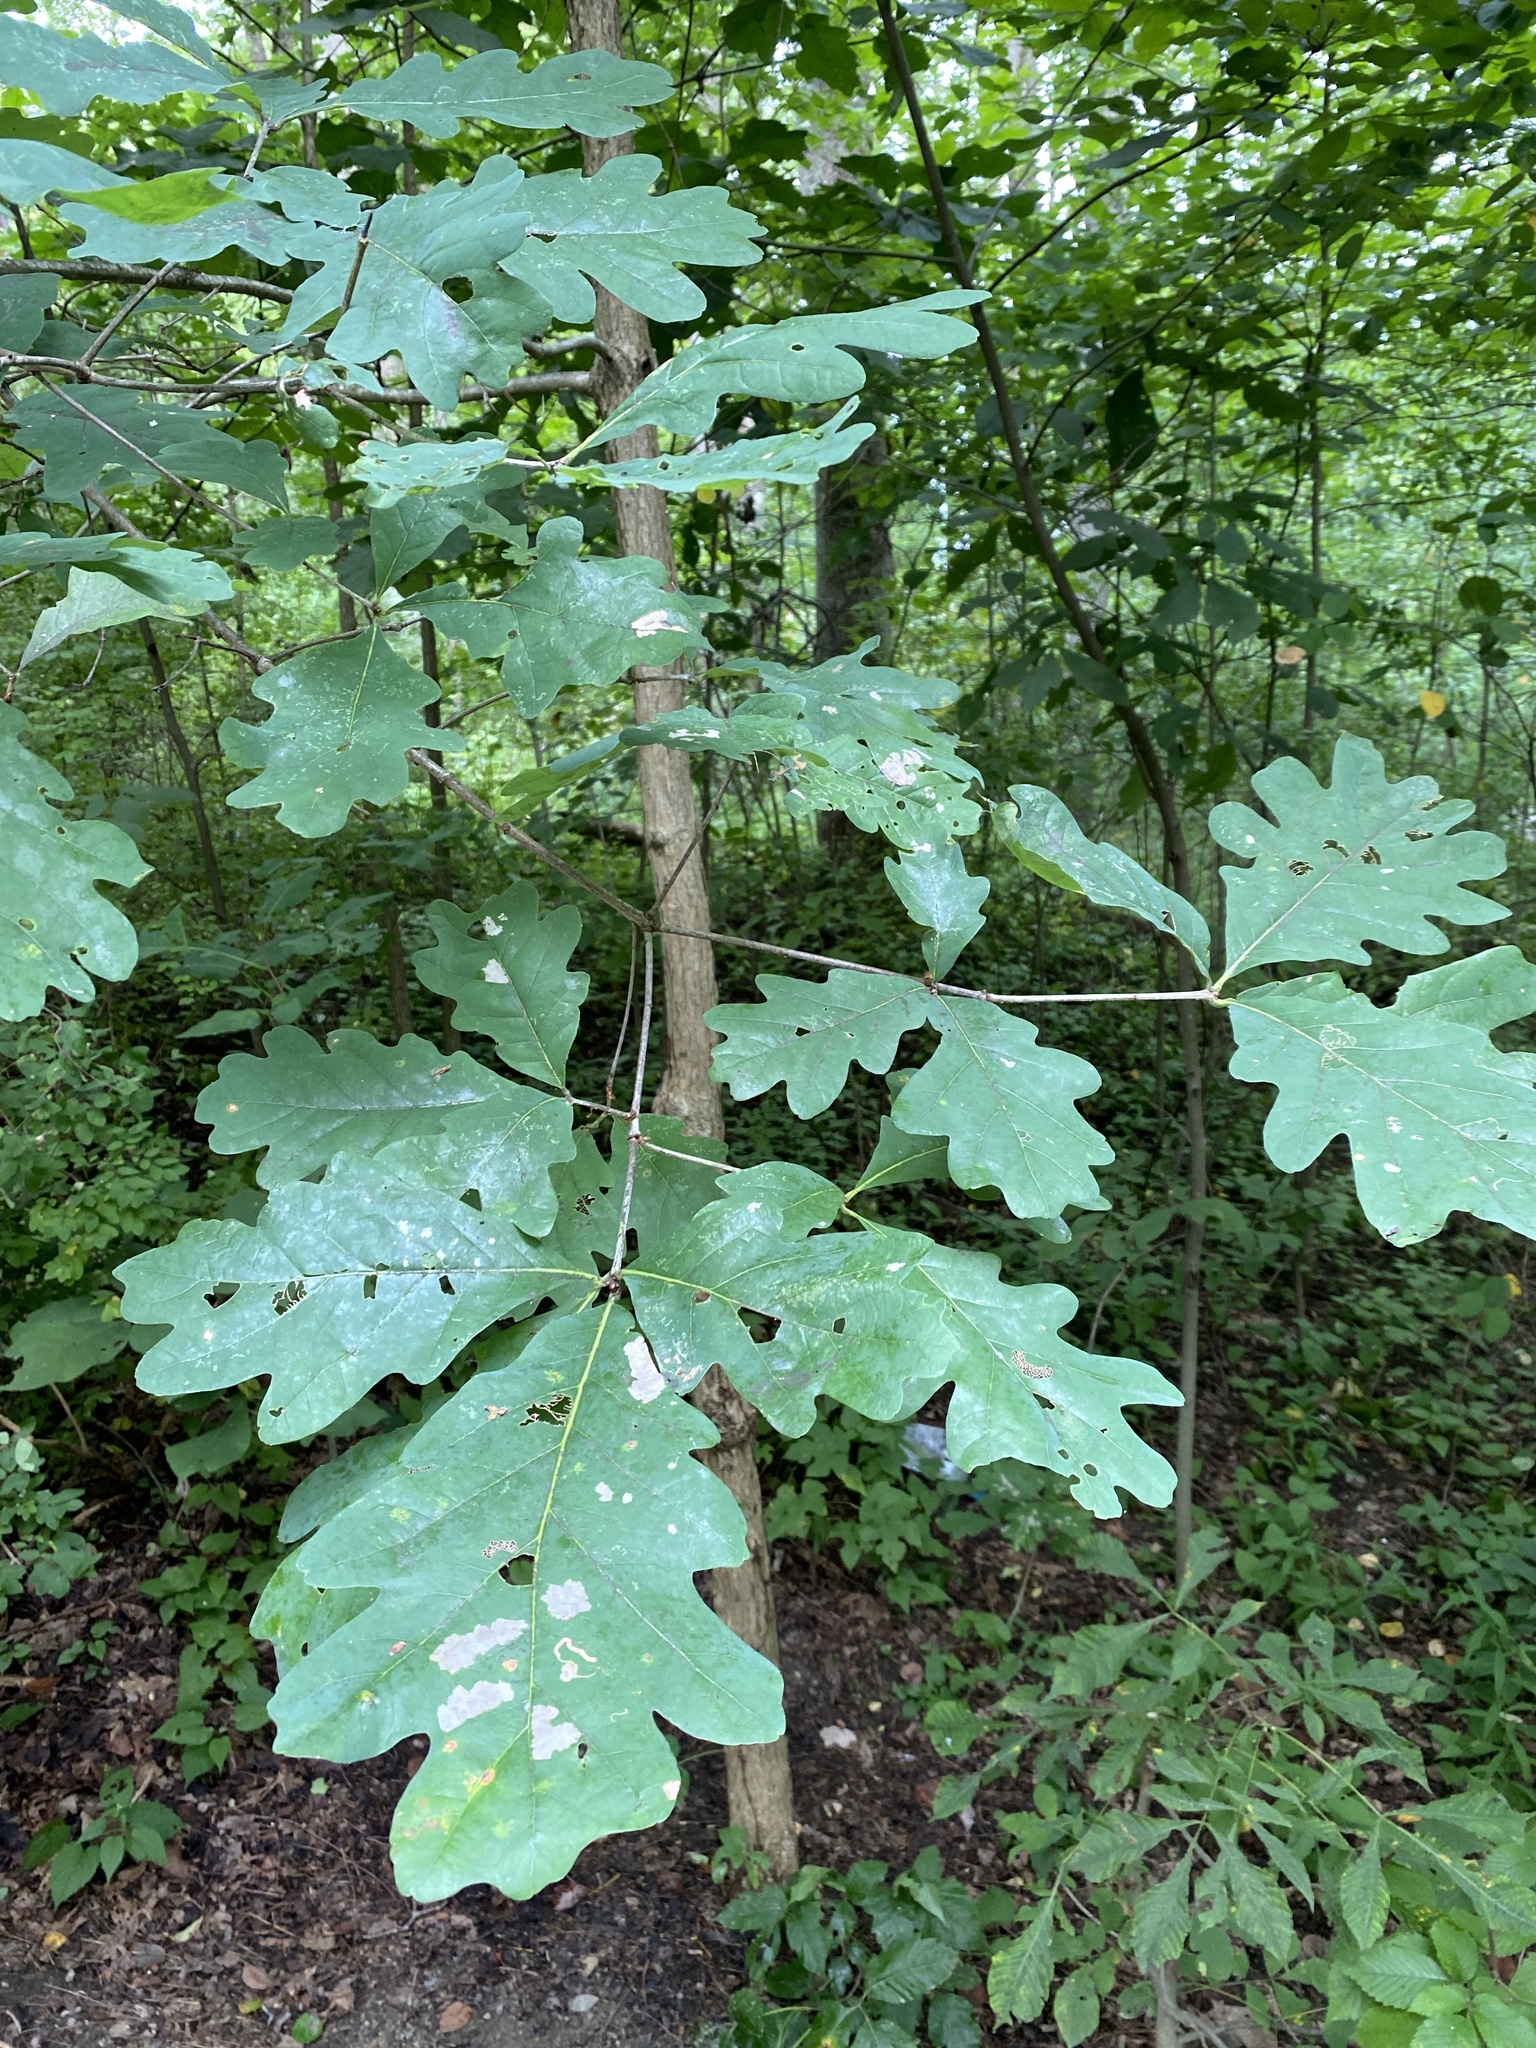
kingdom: Plantae
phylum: Tracheophyta
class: Magnoliopsida
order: Fagales
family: Fagaceae
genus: Quercus
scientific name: Quercus alba
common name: White oak
